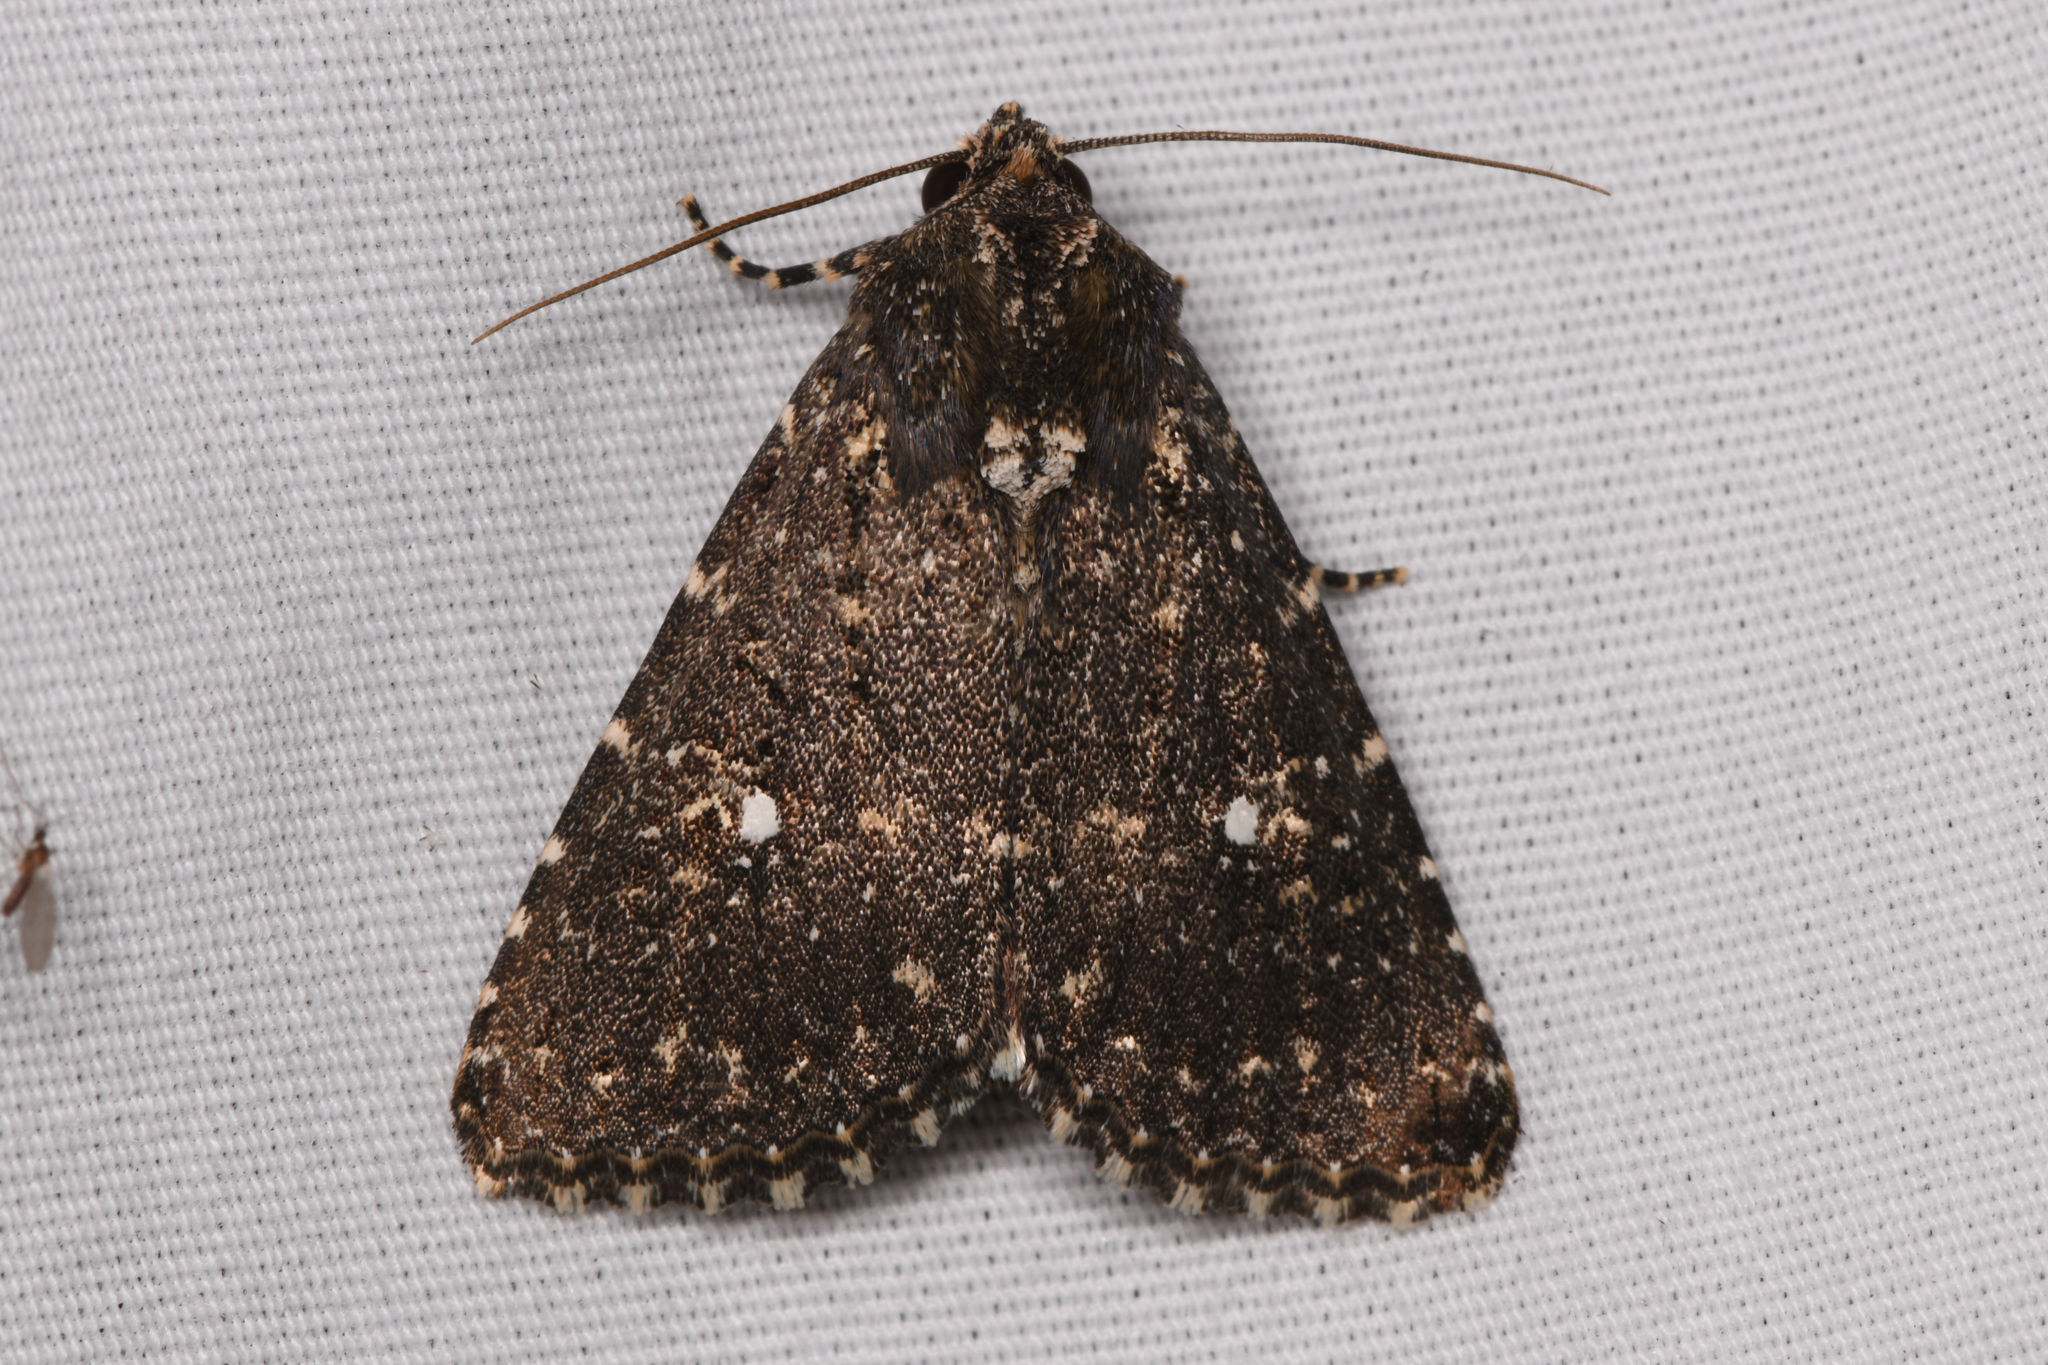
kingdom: Animalia
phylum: Arthropoda
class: Insecta
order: Lepidoptera
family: Noctuidae
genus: Condica
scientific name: Condica albolabes
